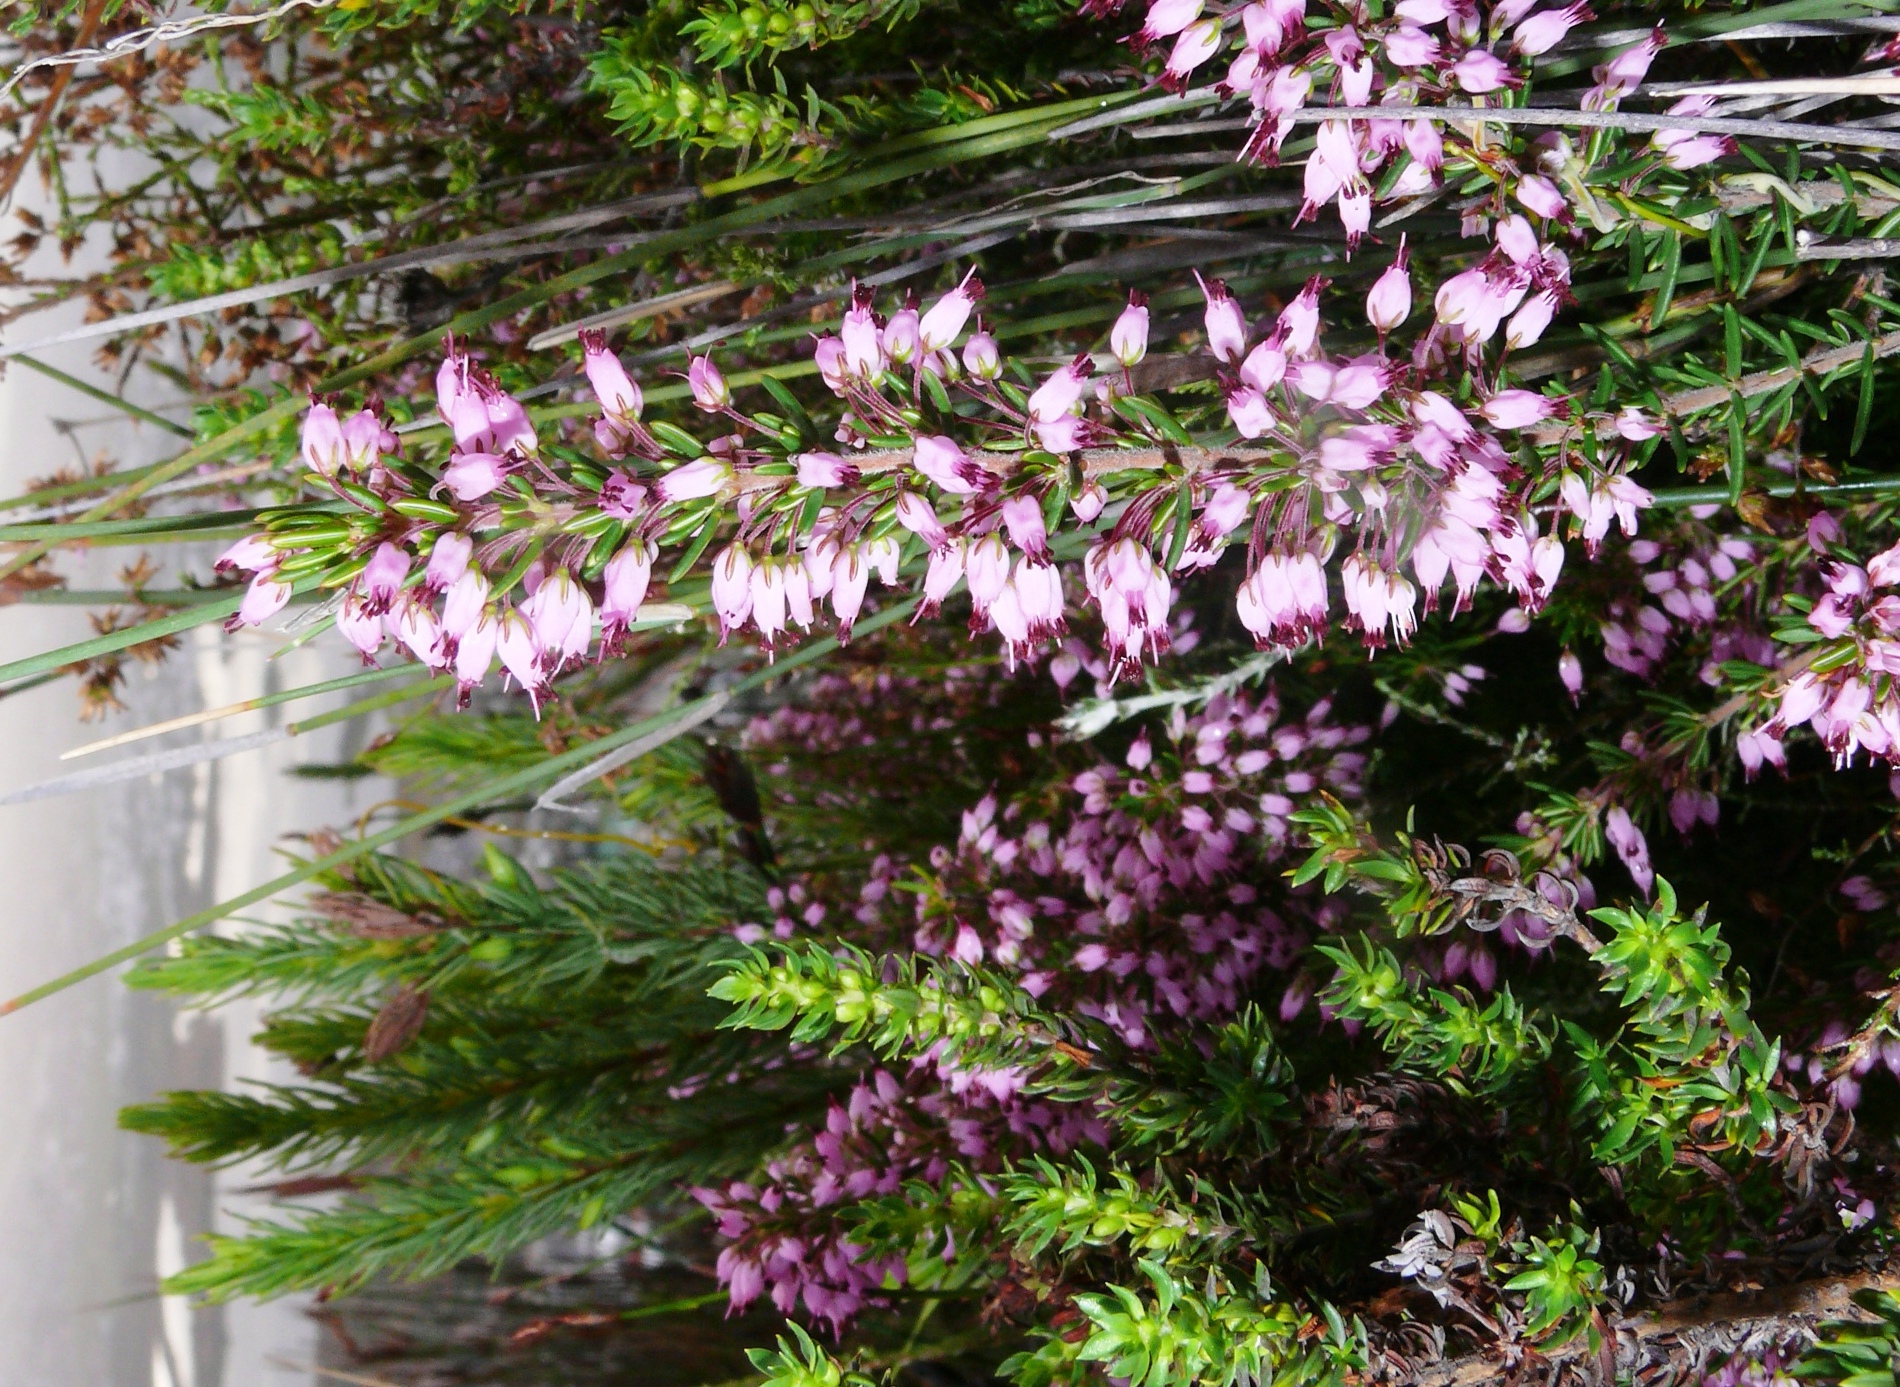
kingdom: Plantae
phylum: Tracheophyta
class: Magnoliopsida
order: Ericales
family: Ericaceae
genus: Erica
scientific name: Erica nudiflora
